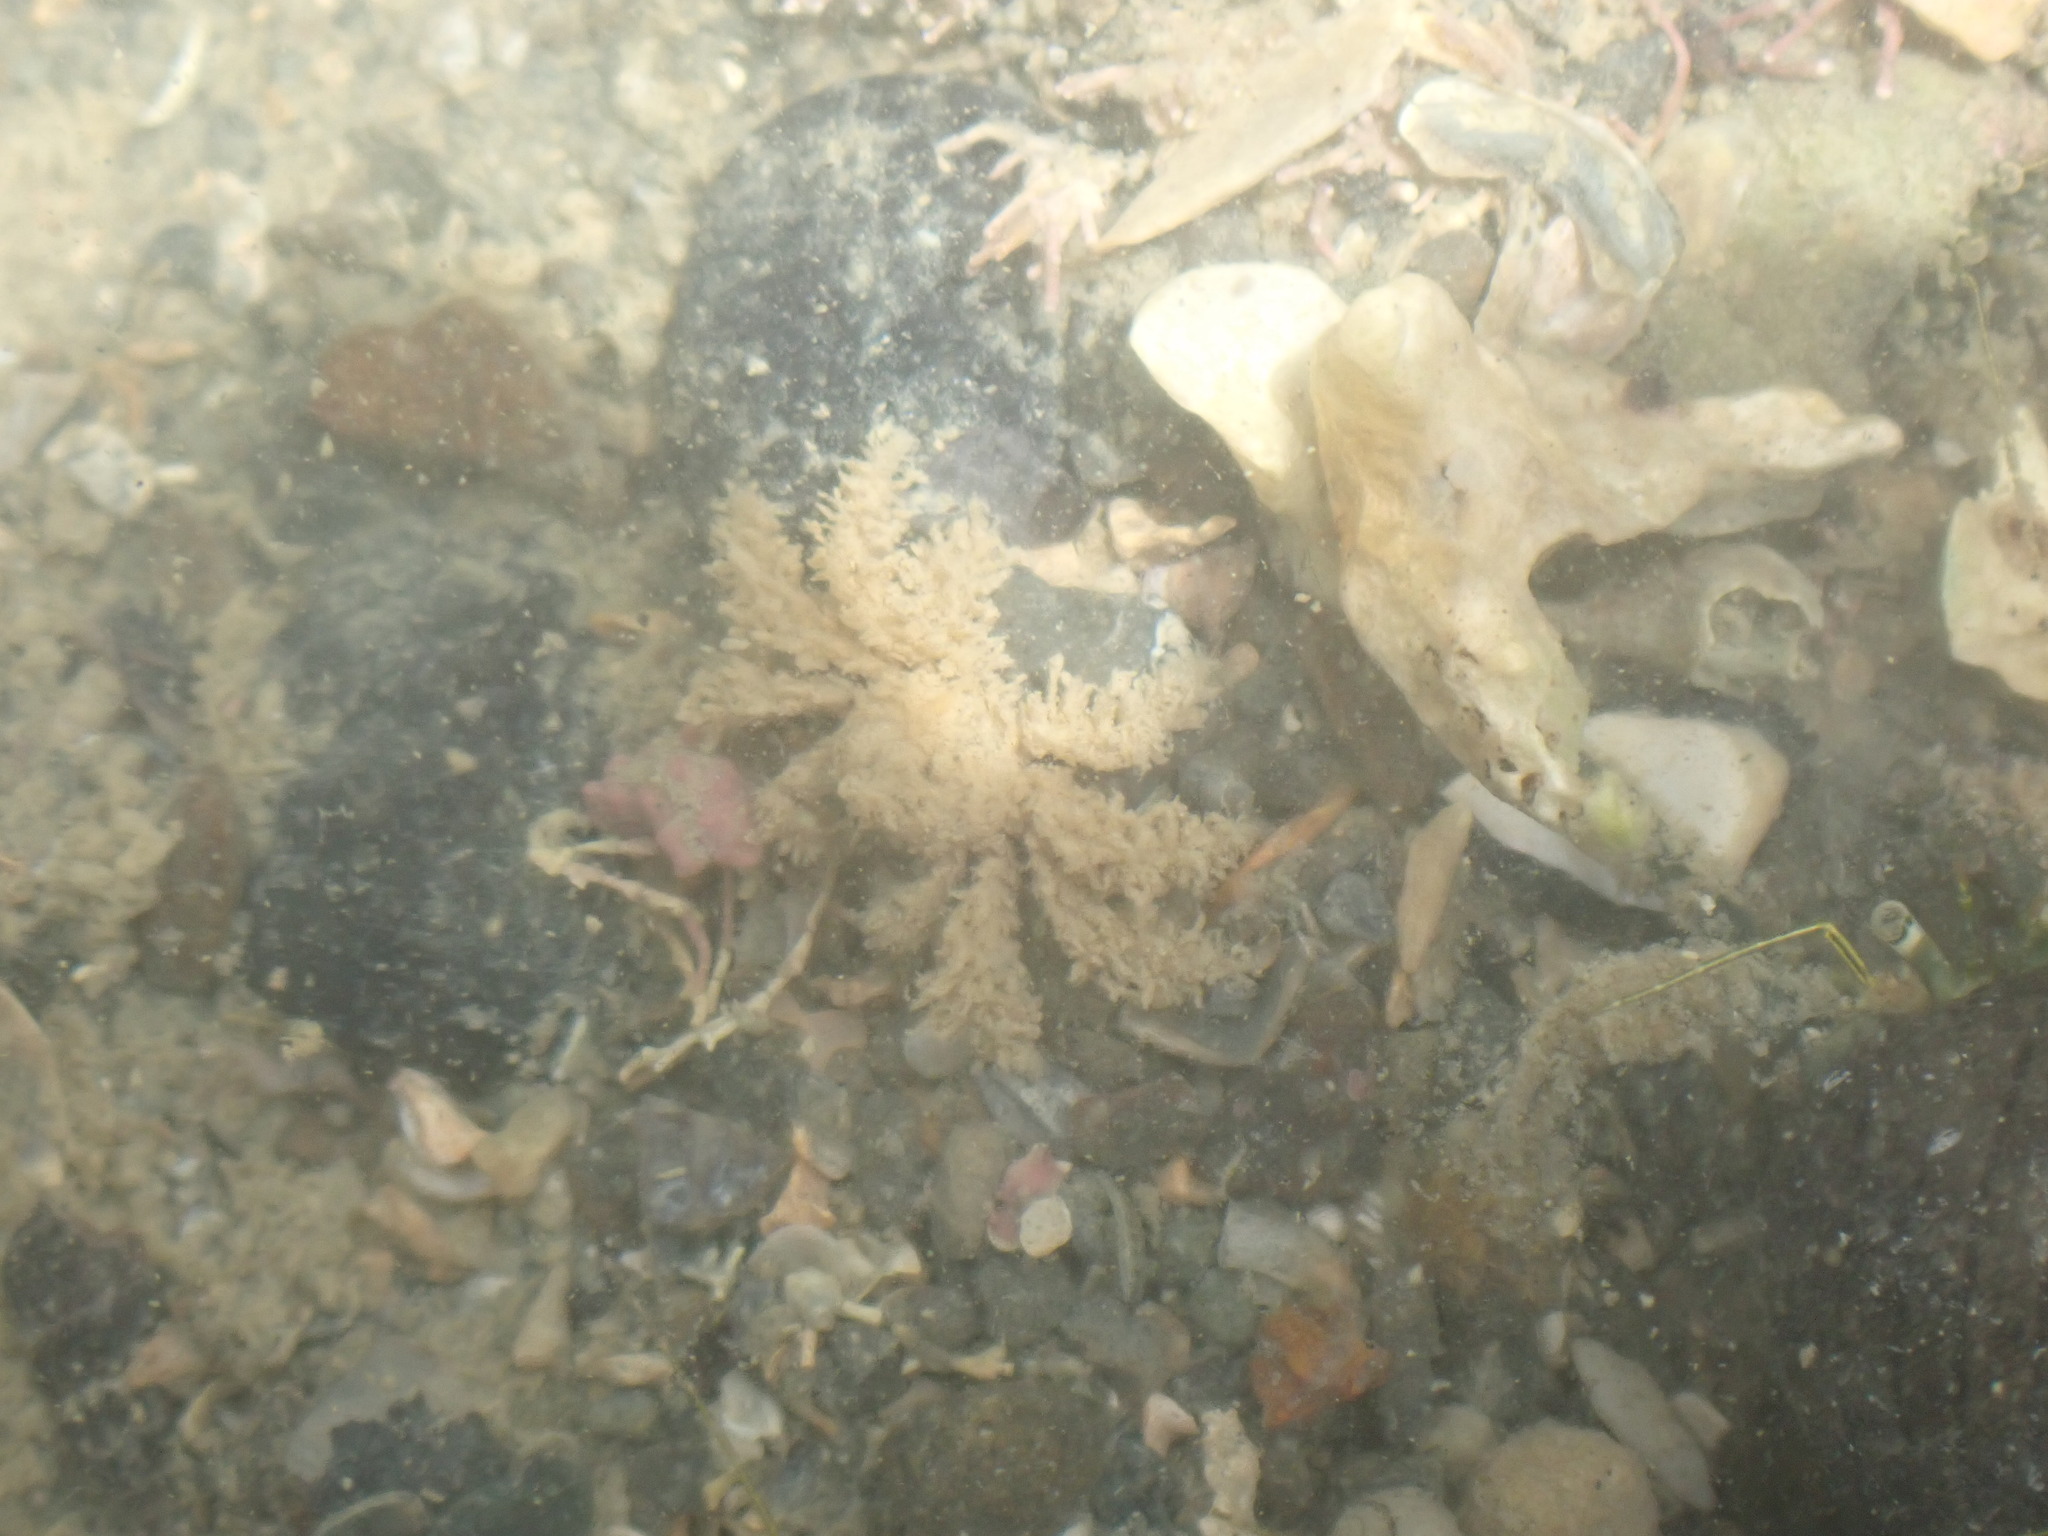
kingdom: Animalia
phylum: Arthropoda
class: Malacostraca
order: Decapoda
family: Hymenosomatidae
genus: Neohymenicus
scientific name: Neohymenicus pubescens
